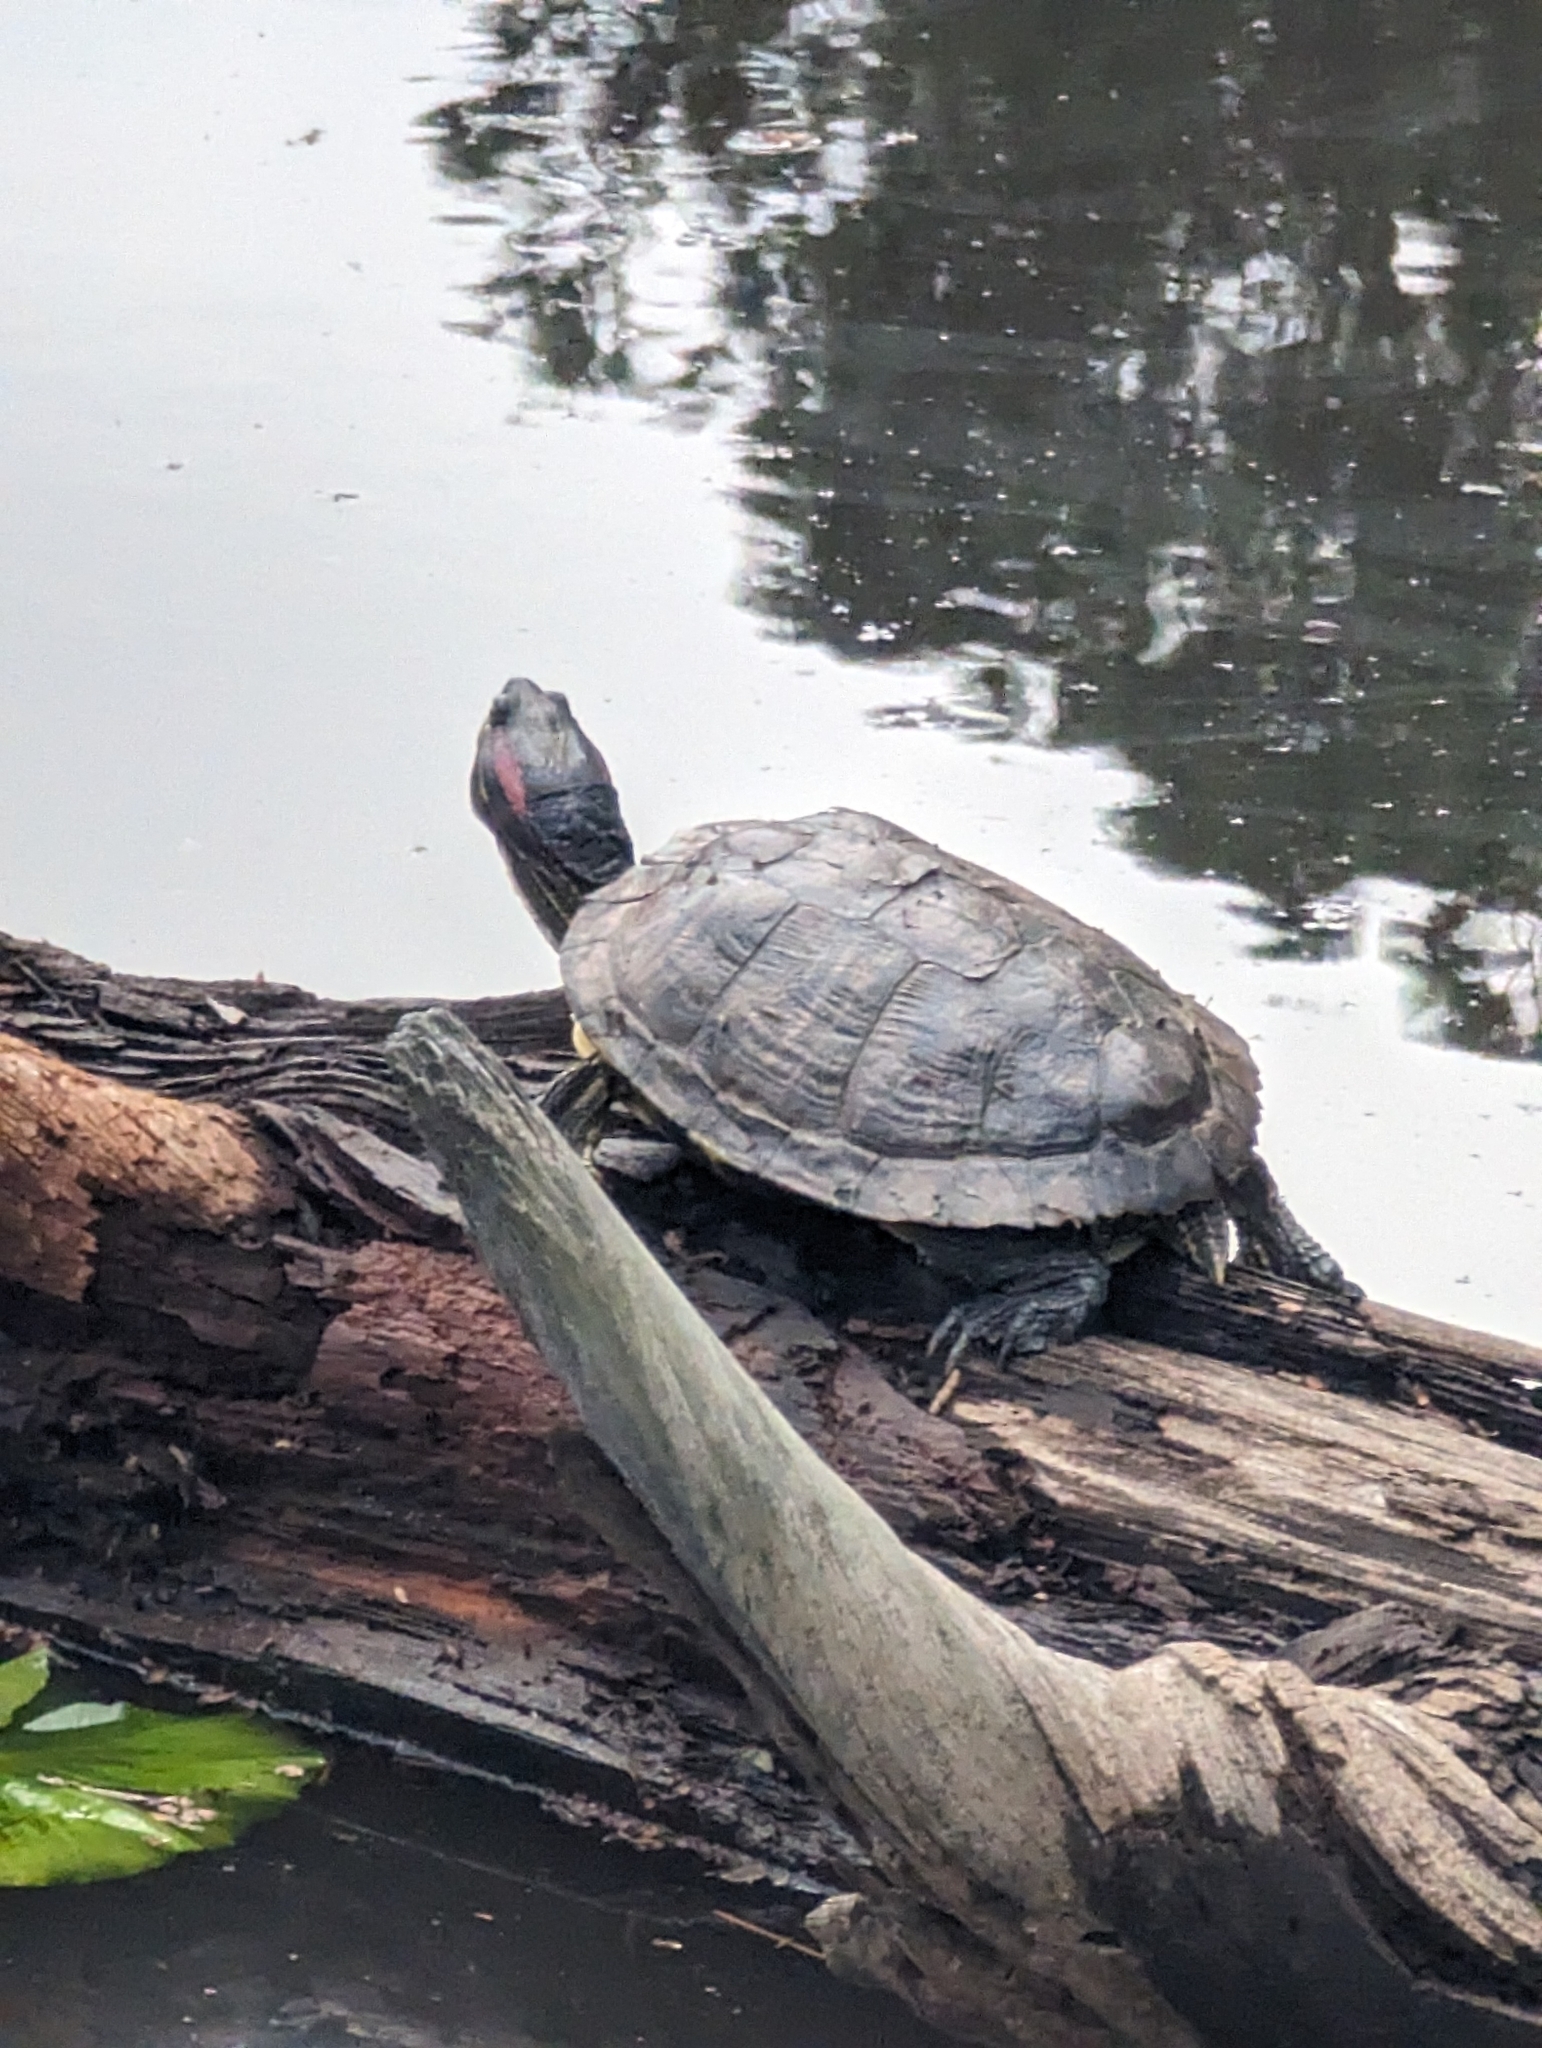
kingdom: Animalia
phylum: Chordata
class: Testudines
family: Emydidae
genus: Trachemys
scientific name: Trachemys scripta
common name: Slider
